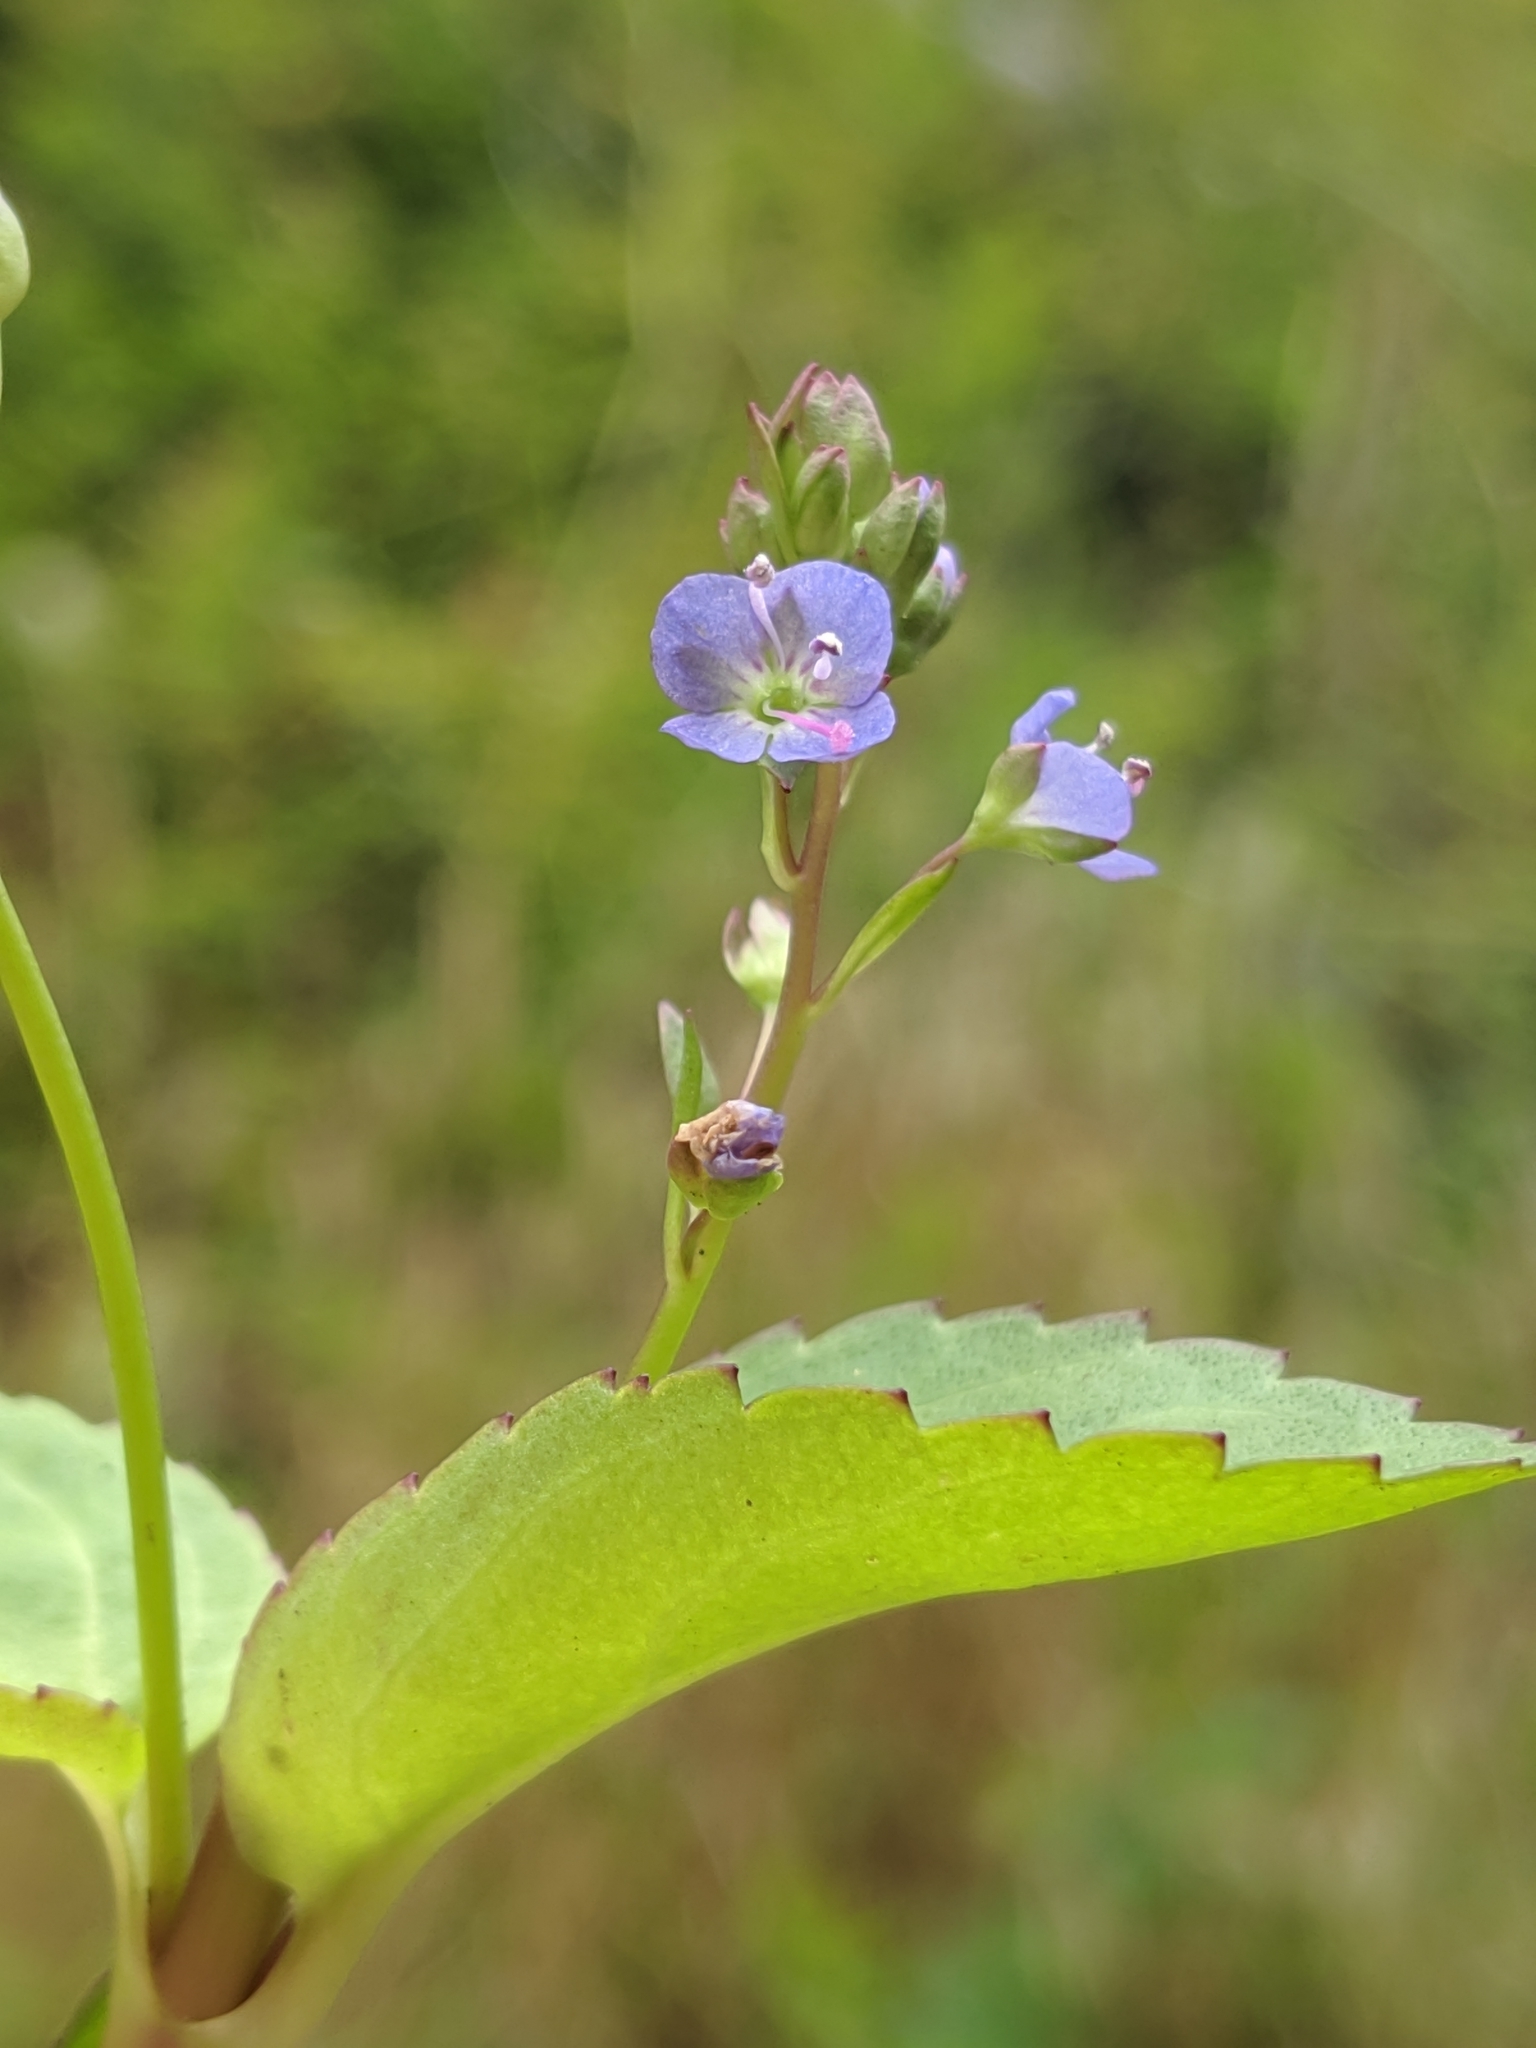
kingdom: Plantae
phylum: Tracheophyta
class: Magnoliopsida
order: Lamiales
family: Plantaginaceae
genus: Veronica
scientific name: Veronica americana
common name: American brooklime
